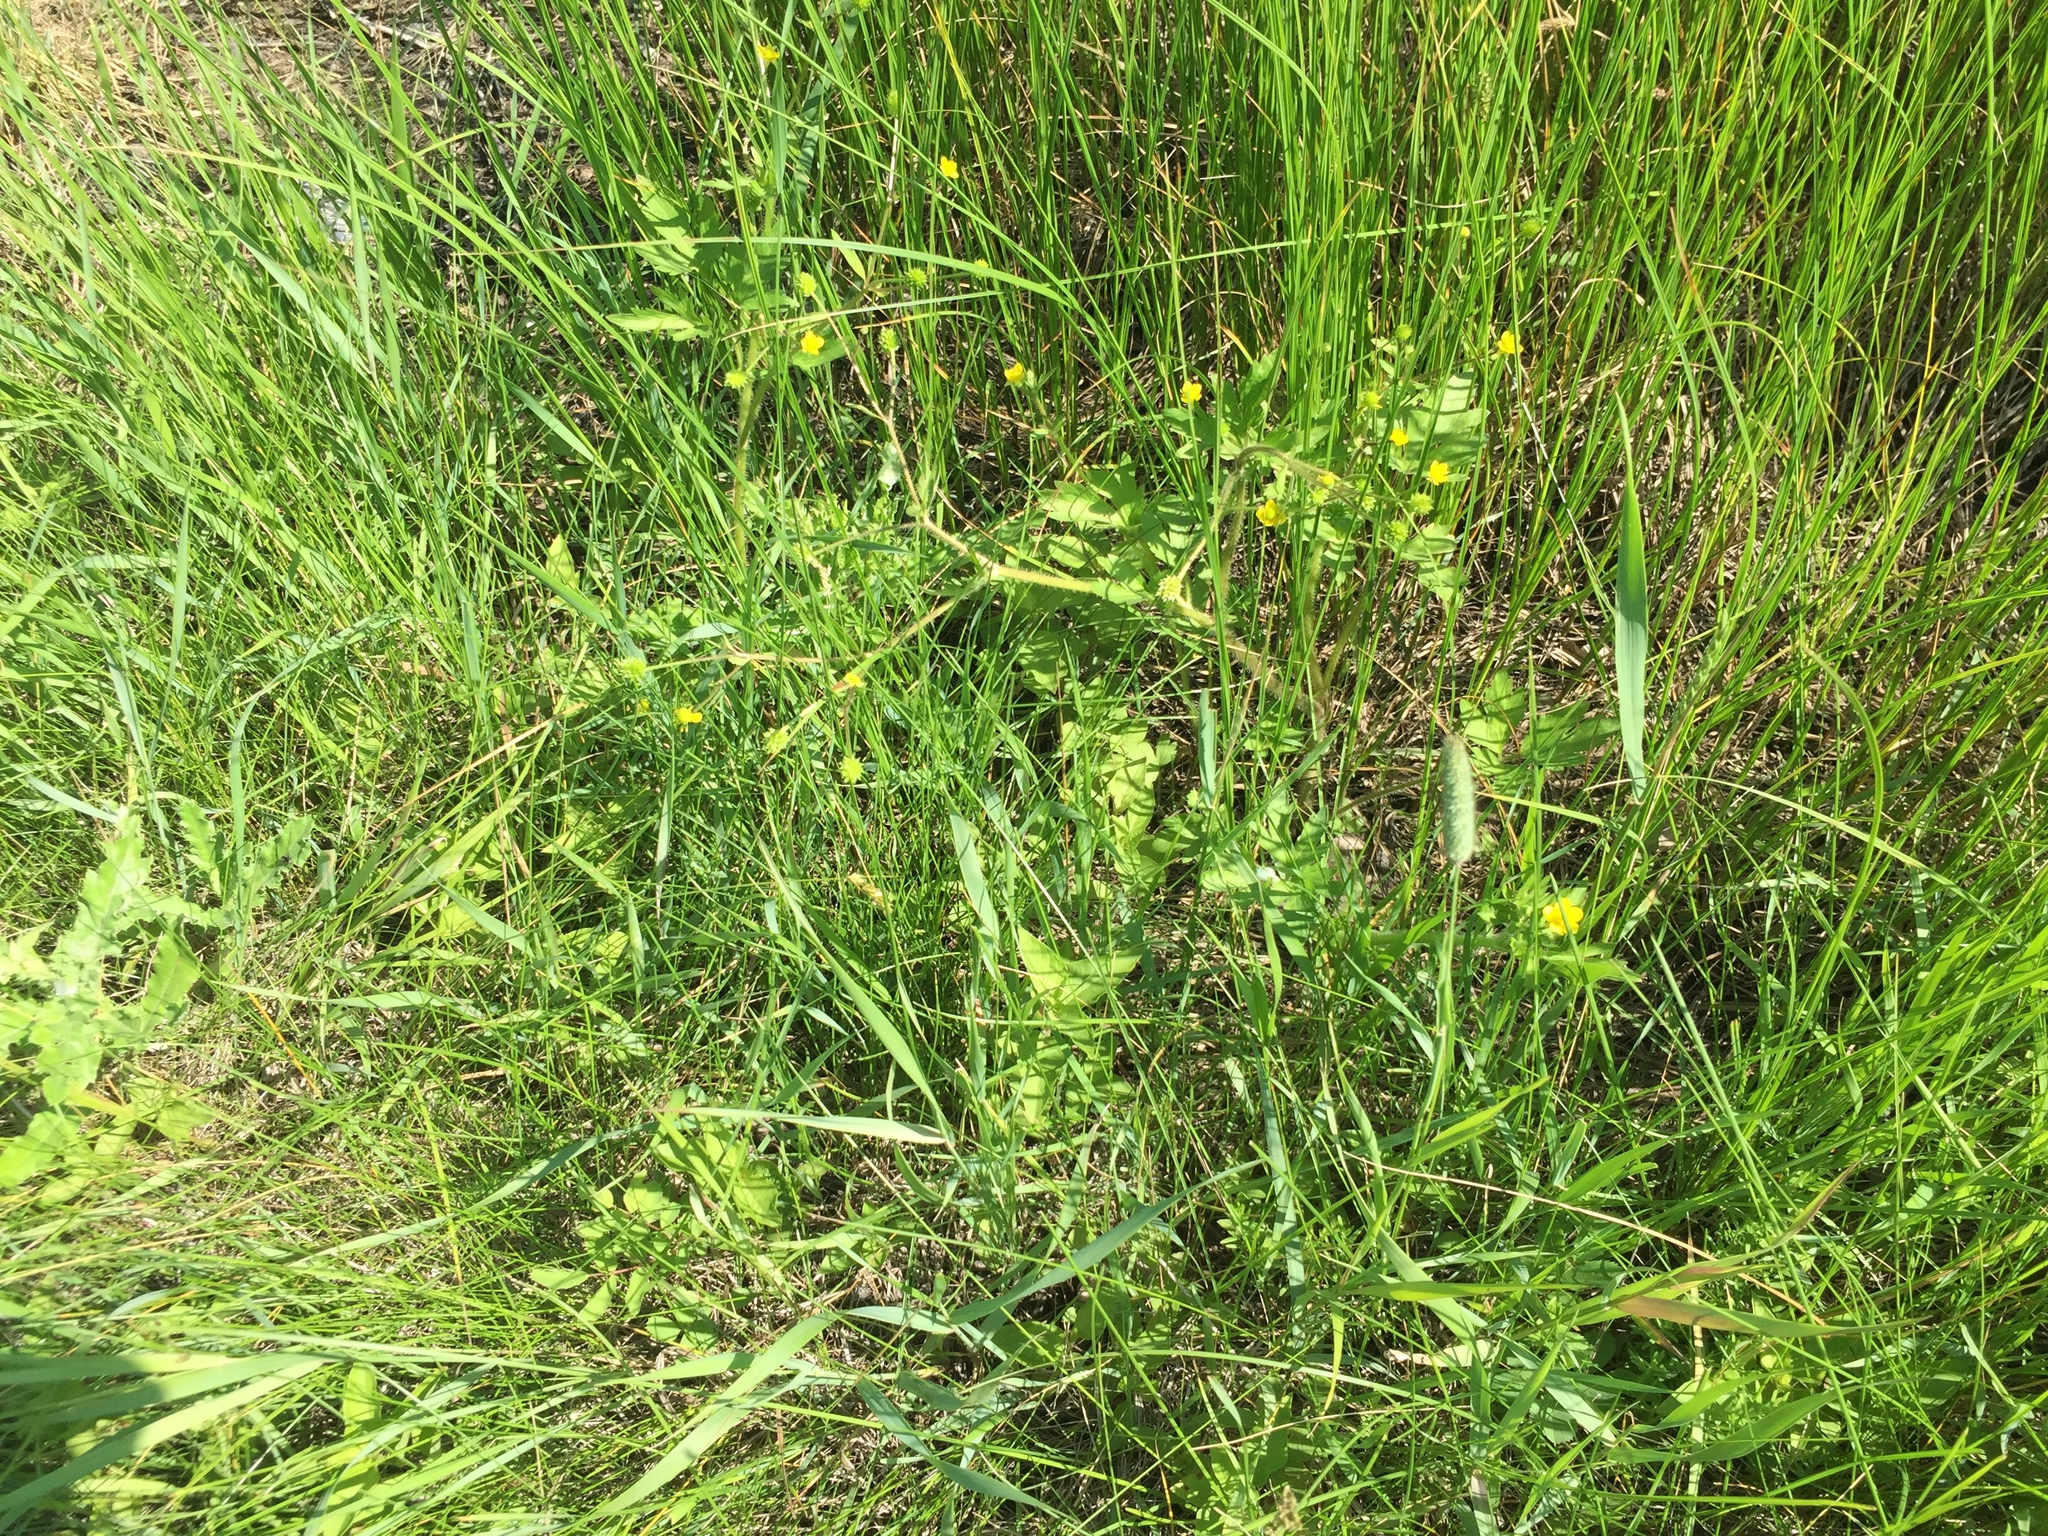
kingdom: Plantae
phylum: Tracheophyta
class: Magnoliopsida
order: Ranunculales
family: Ranunculaceae
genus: Ranunculus
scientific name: Ranunculus macounii
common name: Macoun's buttercup
